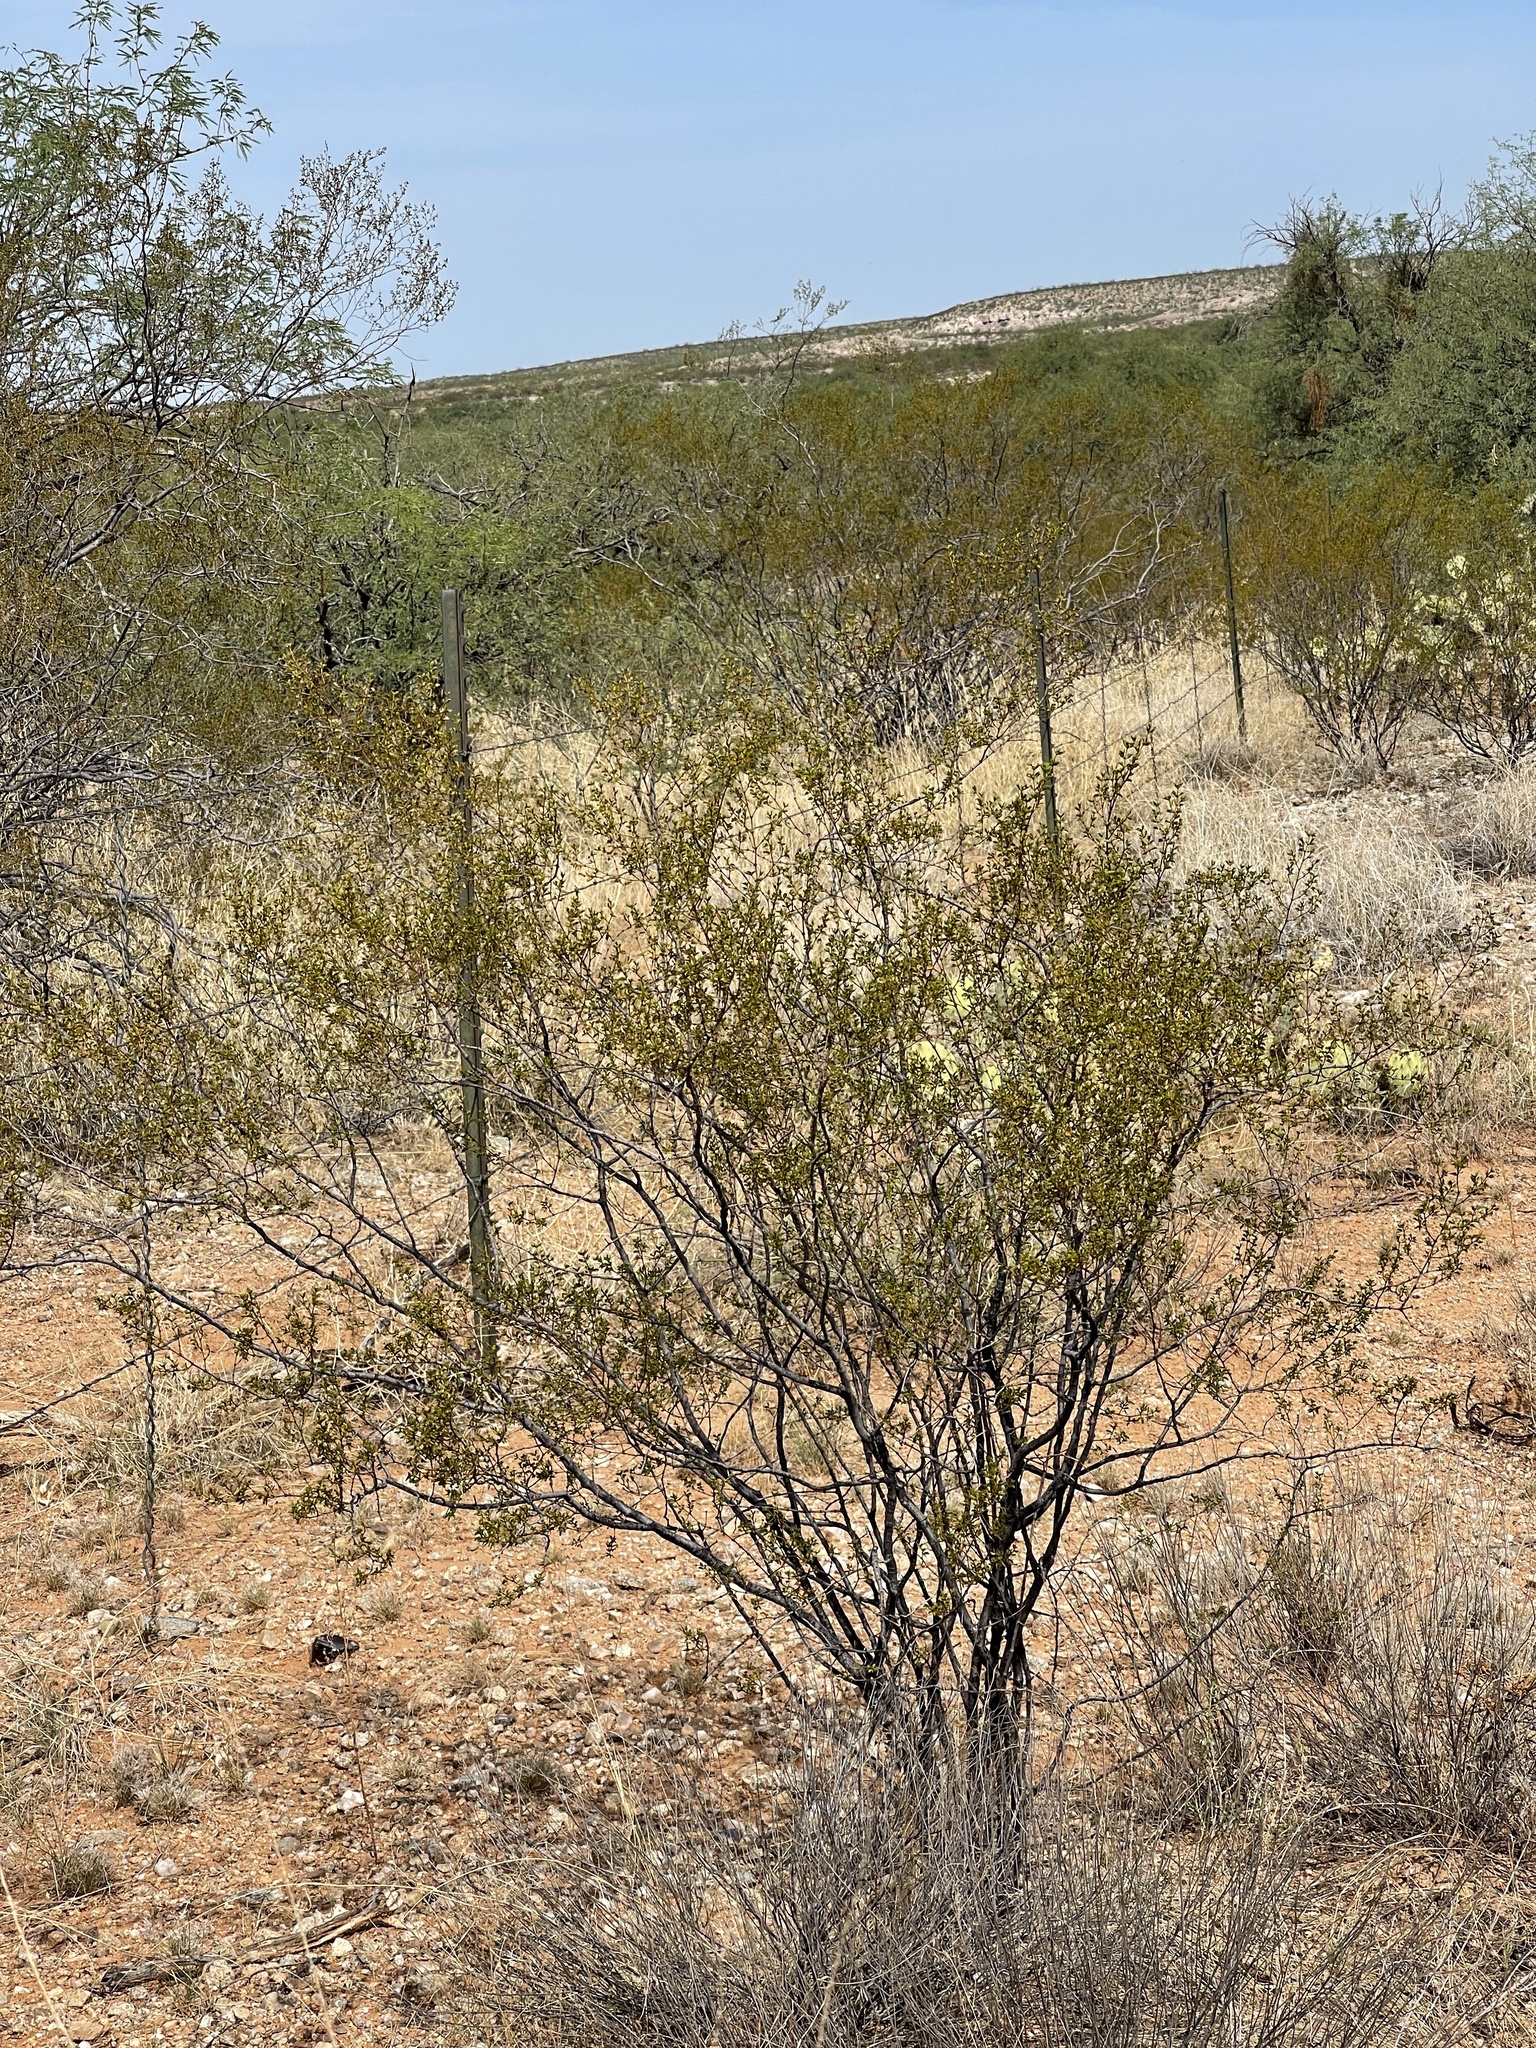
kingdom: Plantae
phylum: Tracheophyta
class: Magnoliopsida
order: Zygophyllales
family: Zygophyllaceae
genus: Larrea
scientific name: Larrea tridentata
